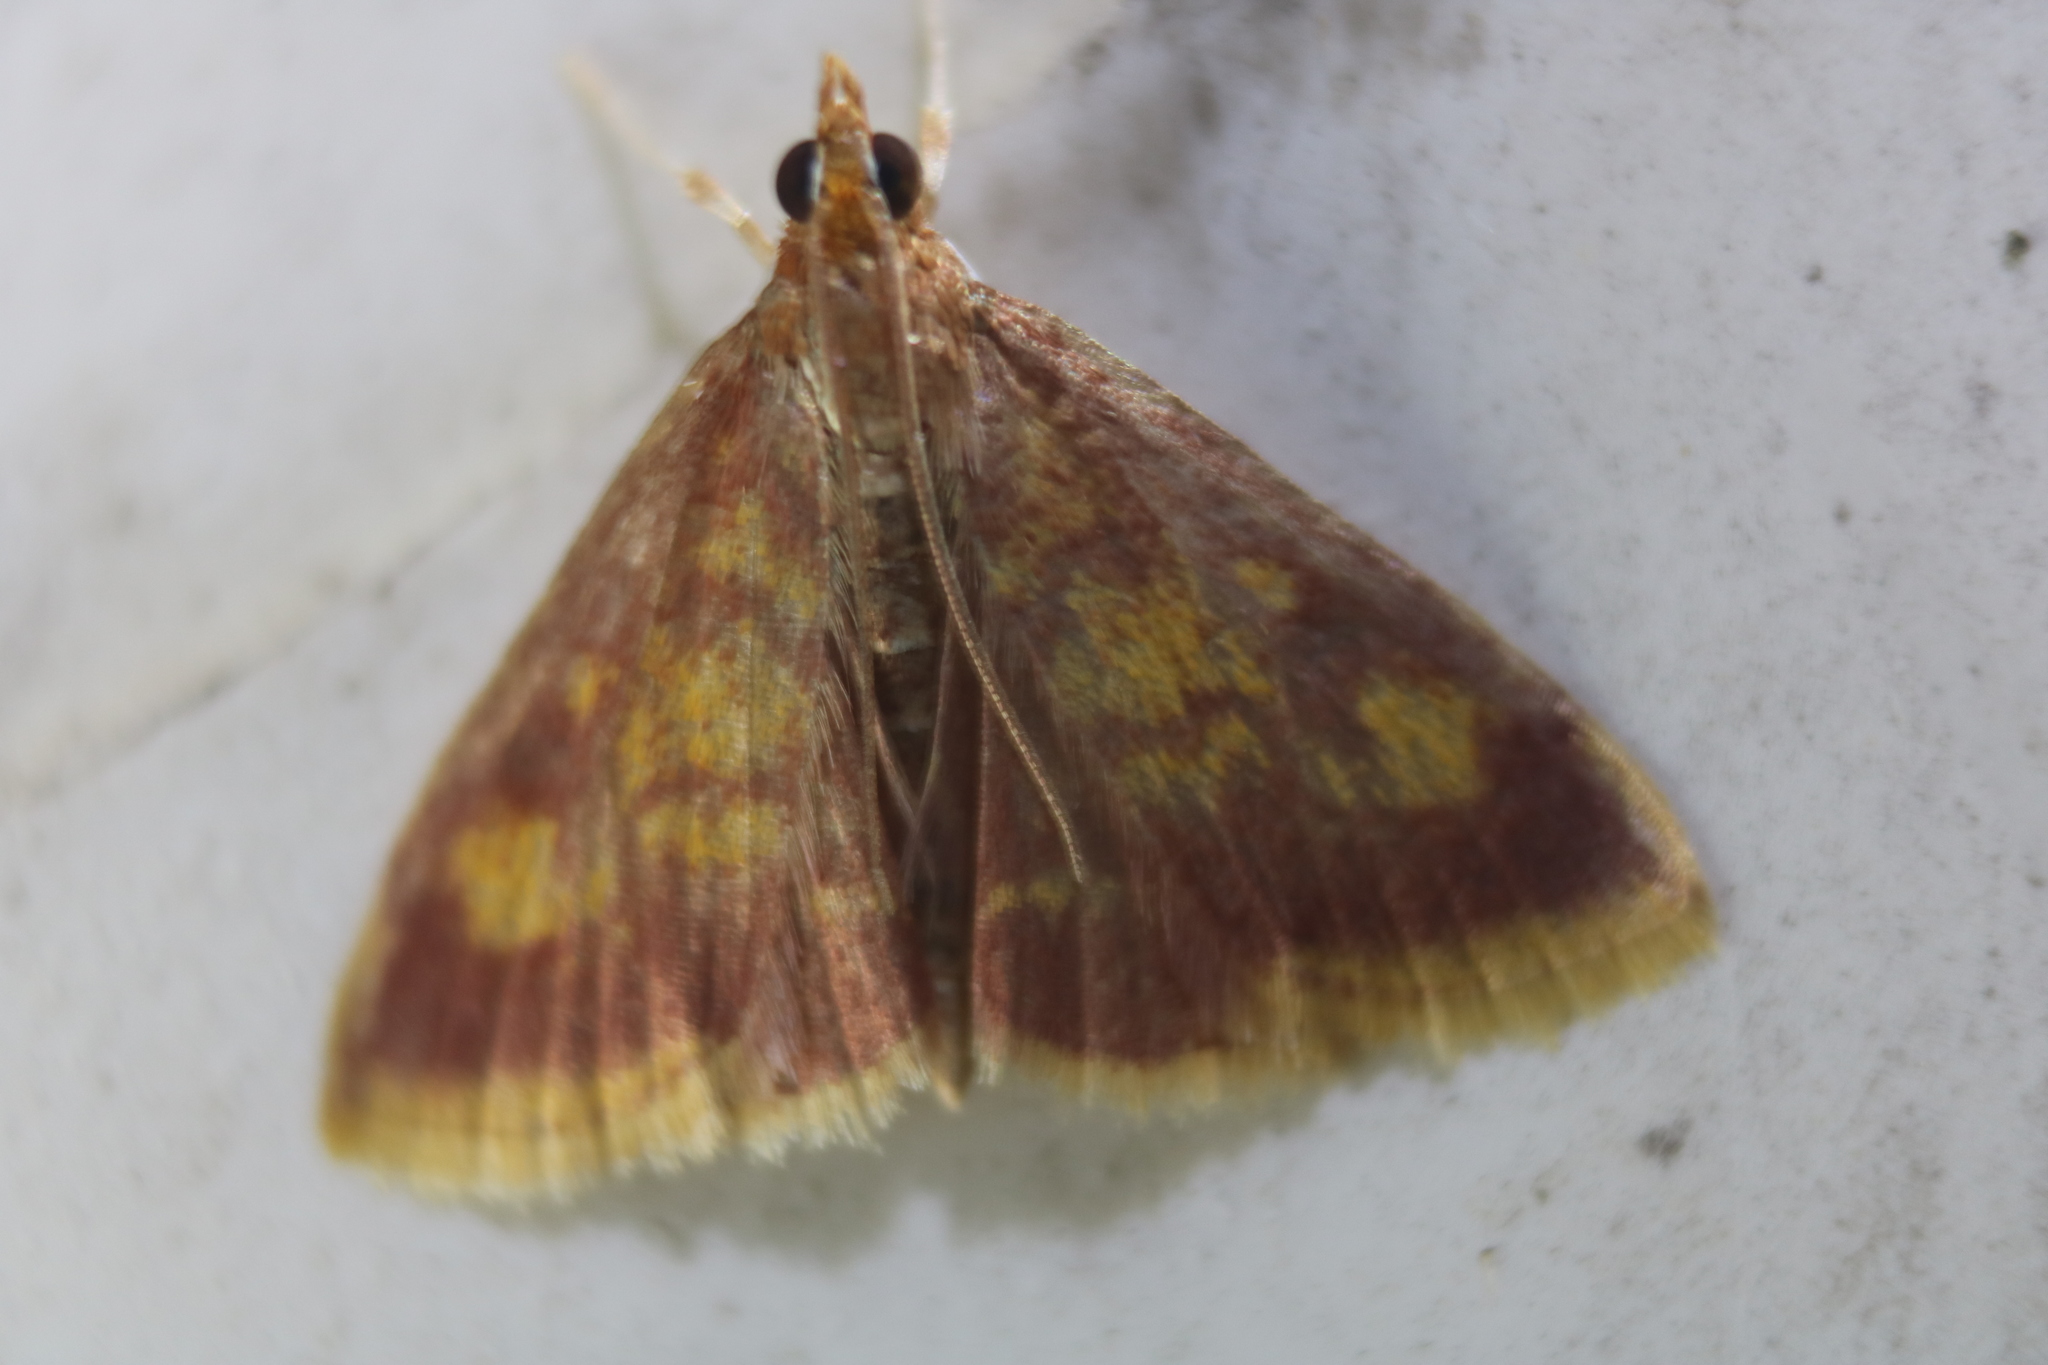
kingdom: Animalia
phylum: Arthropoda
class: Insecta
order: Lepidoptera
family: Crambidae
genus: Pyrausta
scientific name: Pyrausta acrionalis
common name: Mint-loving pyrausta moth
